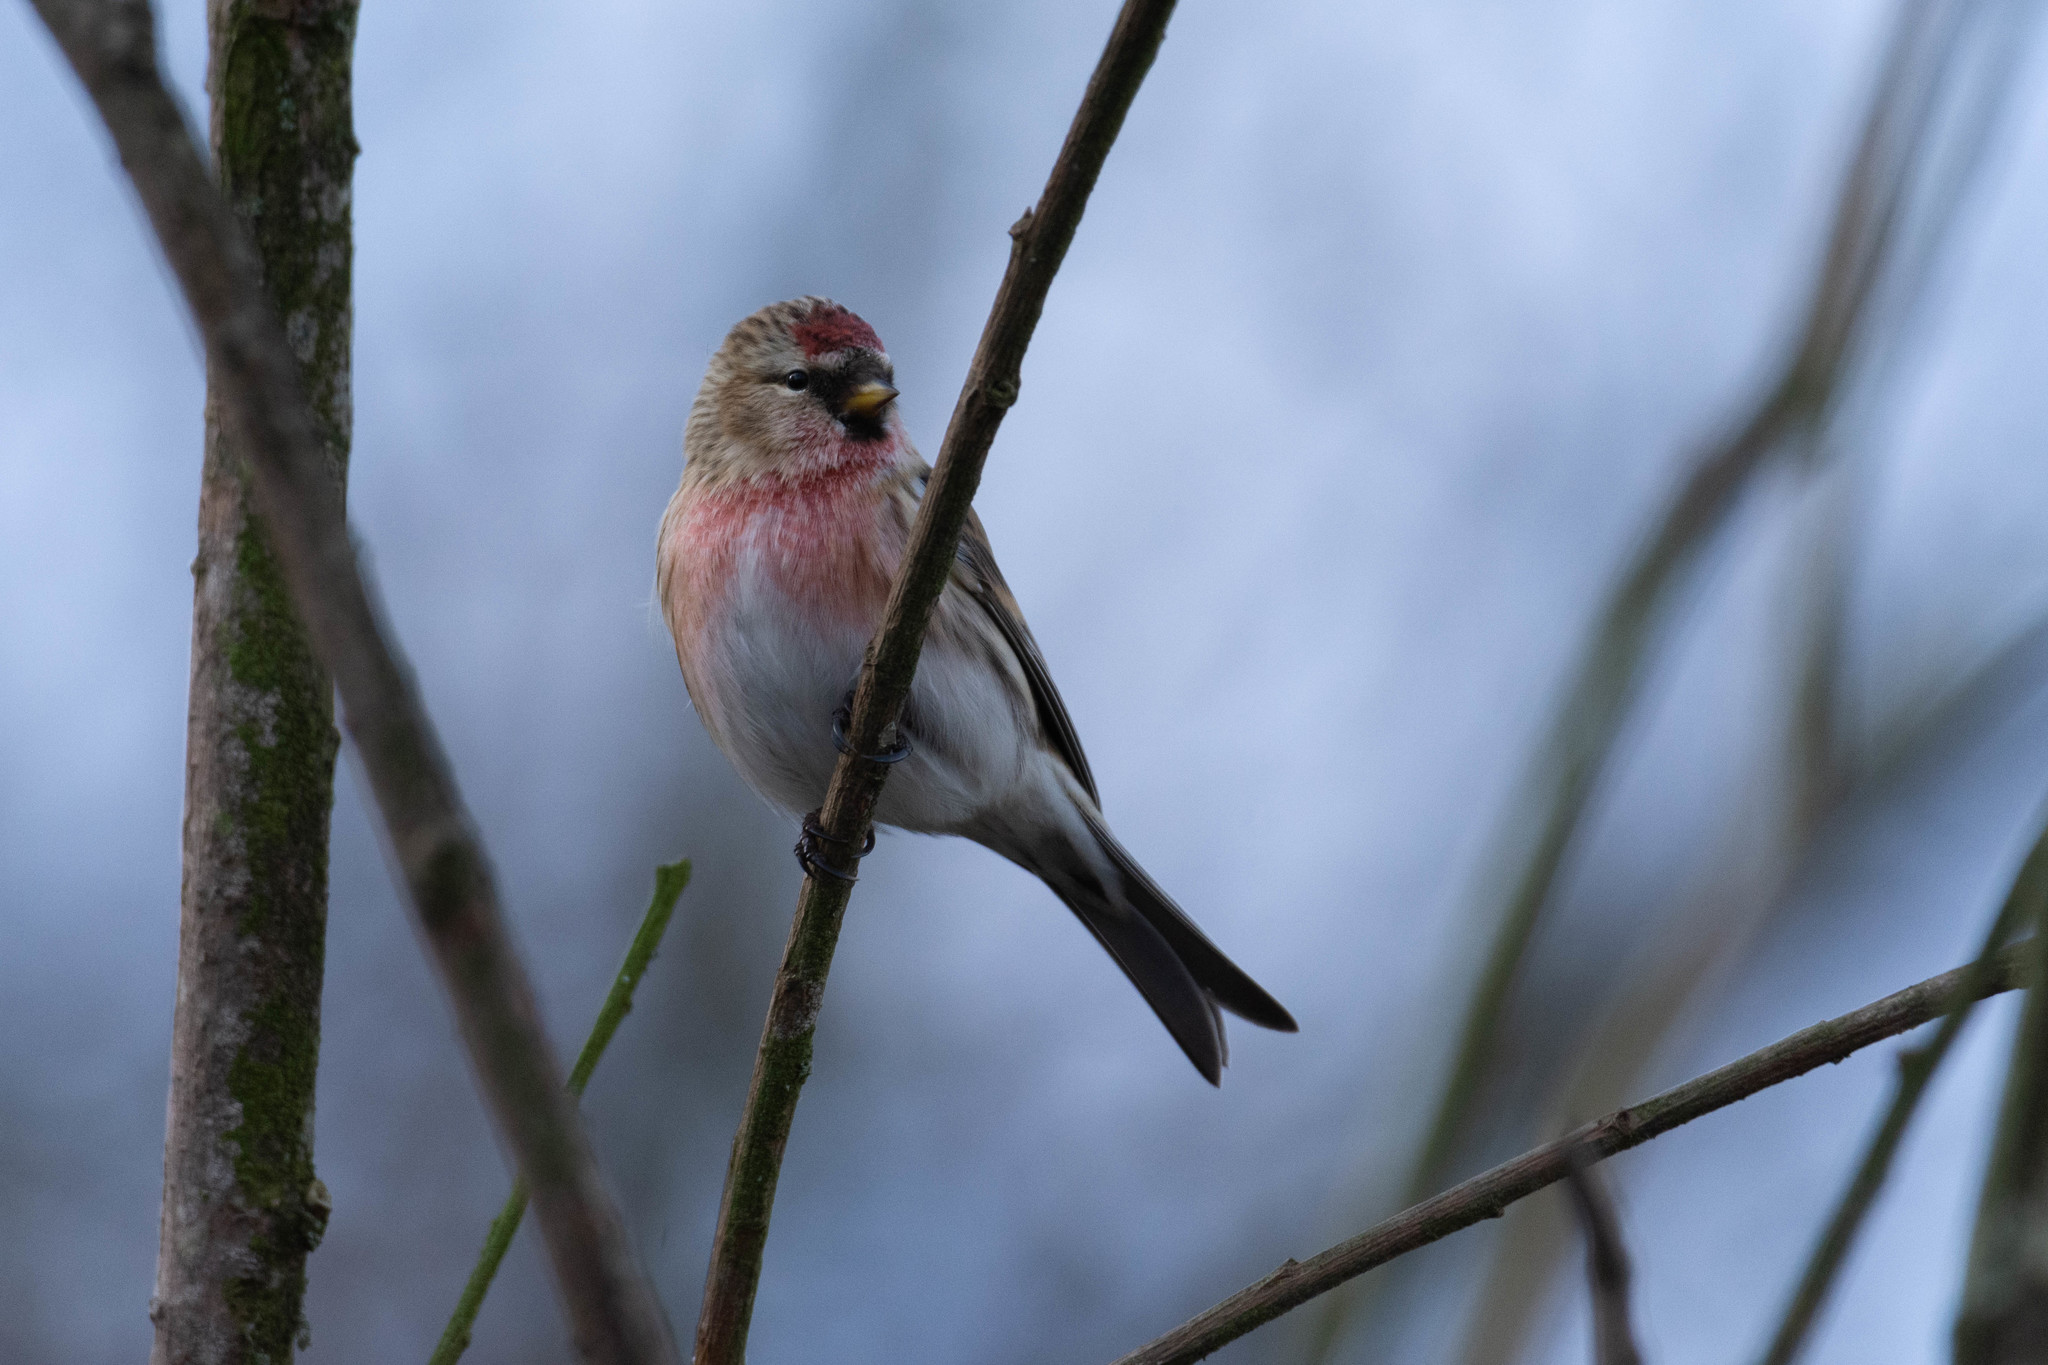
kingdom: Animalia
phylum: Chordata
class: Aves
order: Passeriformes
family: Fringillidae
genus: Acanthis
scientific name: Acanthis flammea
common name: Common redpoll
